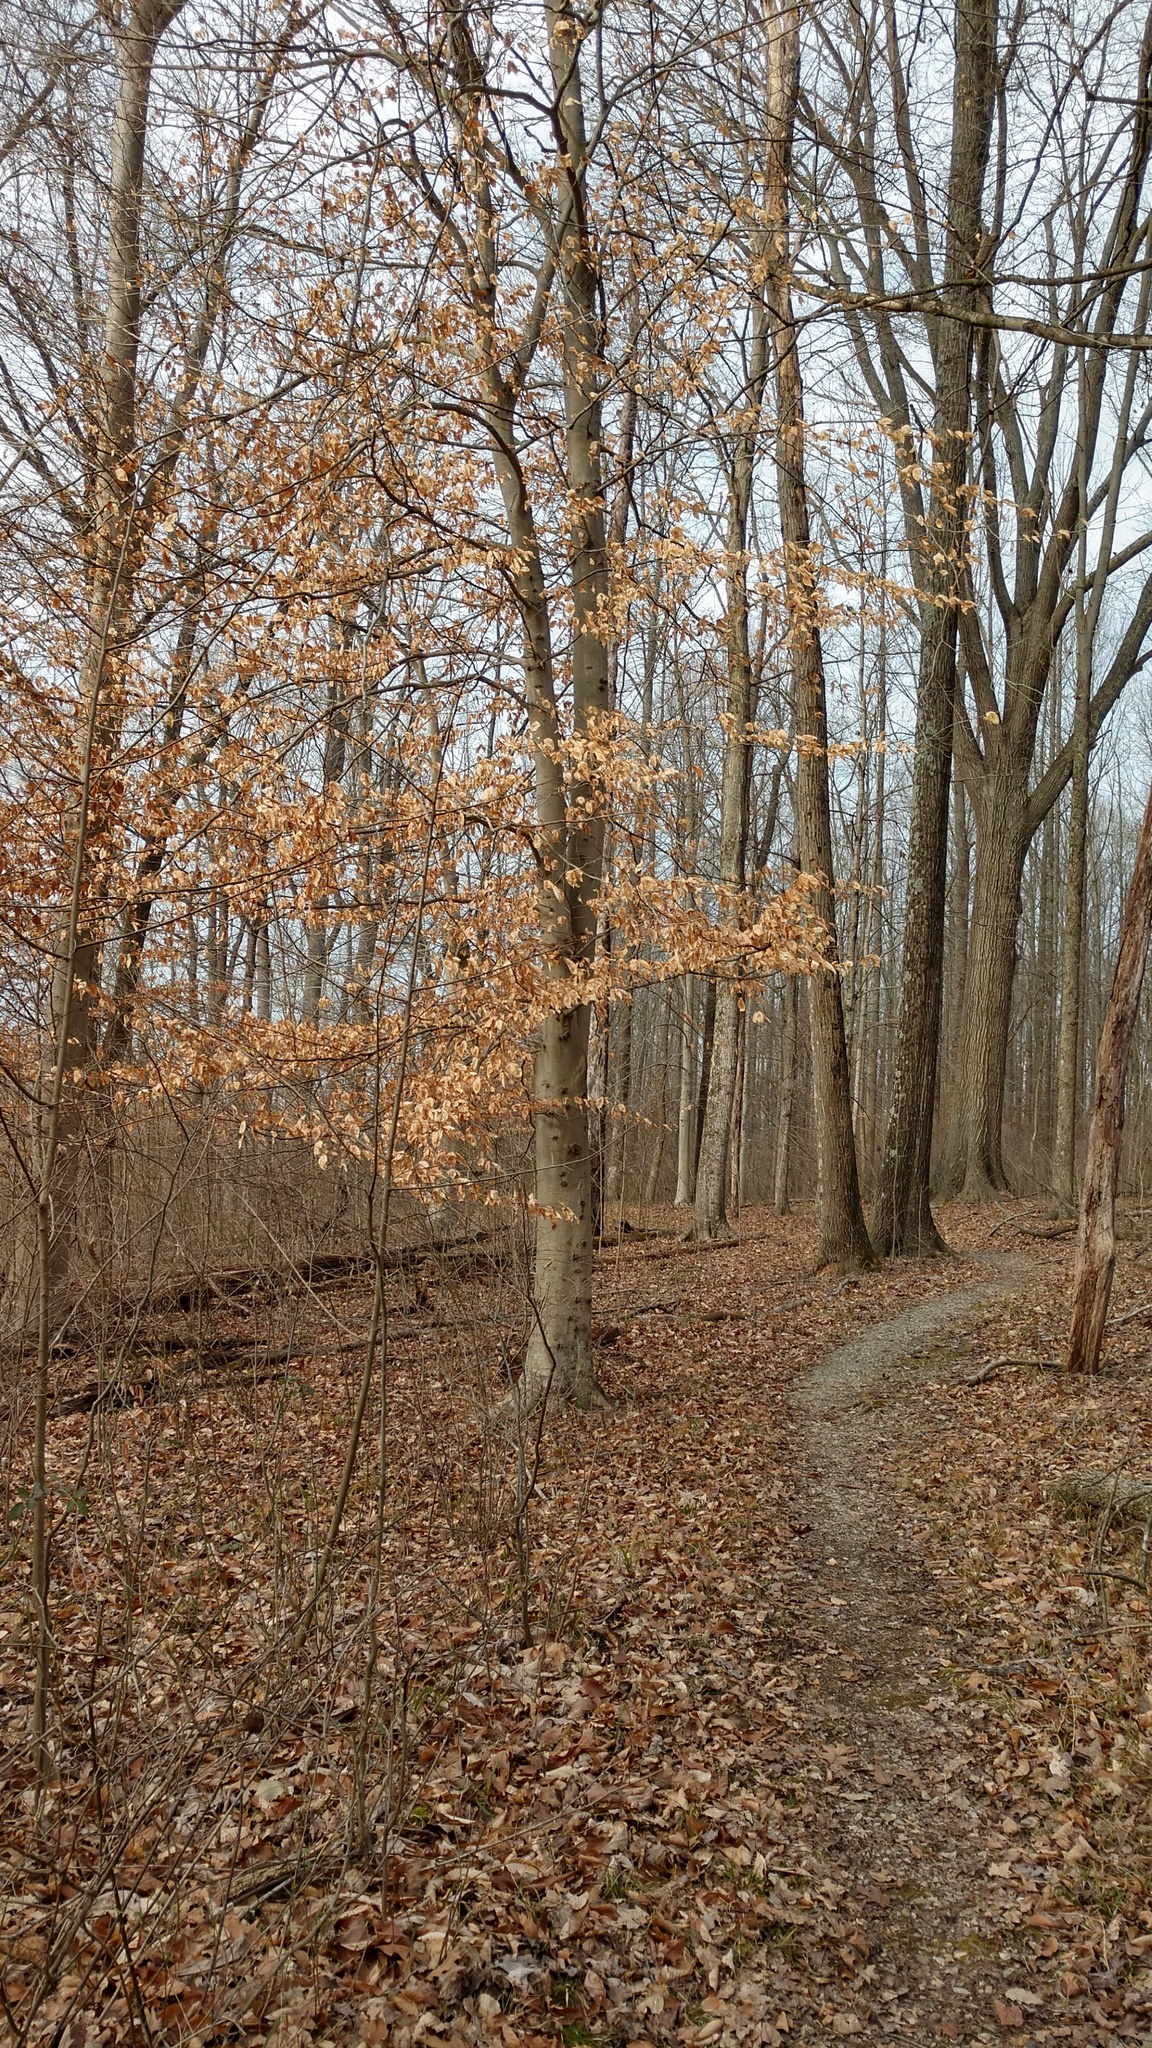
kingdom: Plantae
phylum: Tracheophyta
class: Magnoliopsida
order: Fagales
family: Fagaceae
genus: Fagus
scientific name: Fagus grandifolia
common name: American beech
